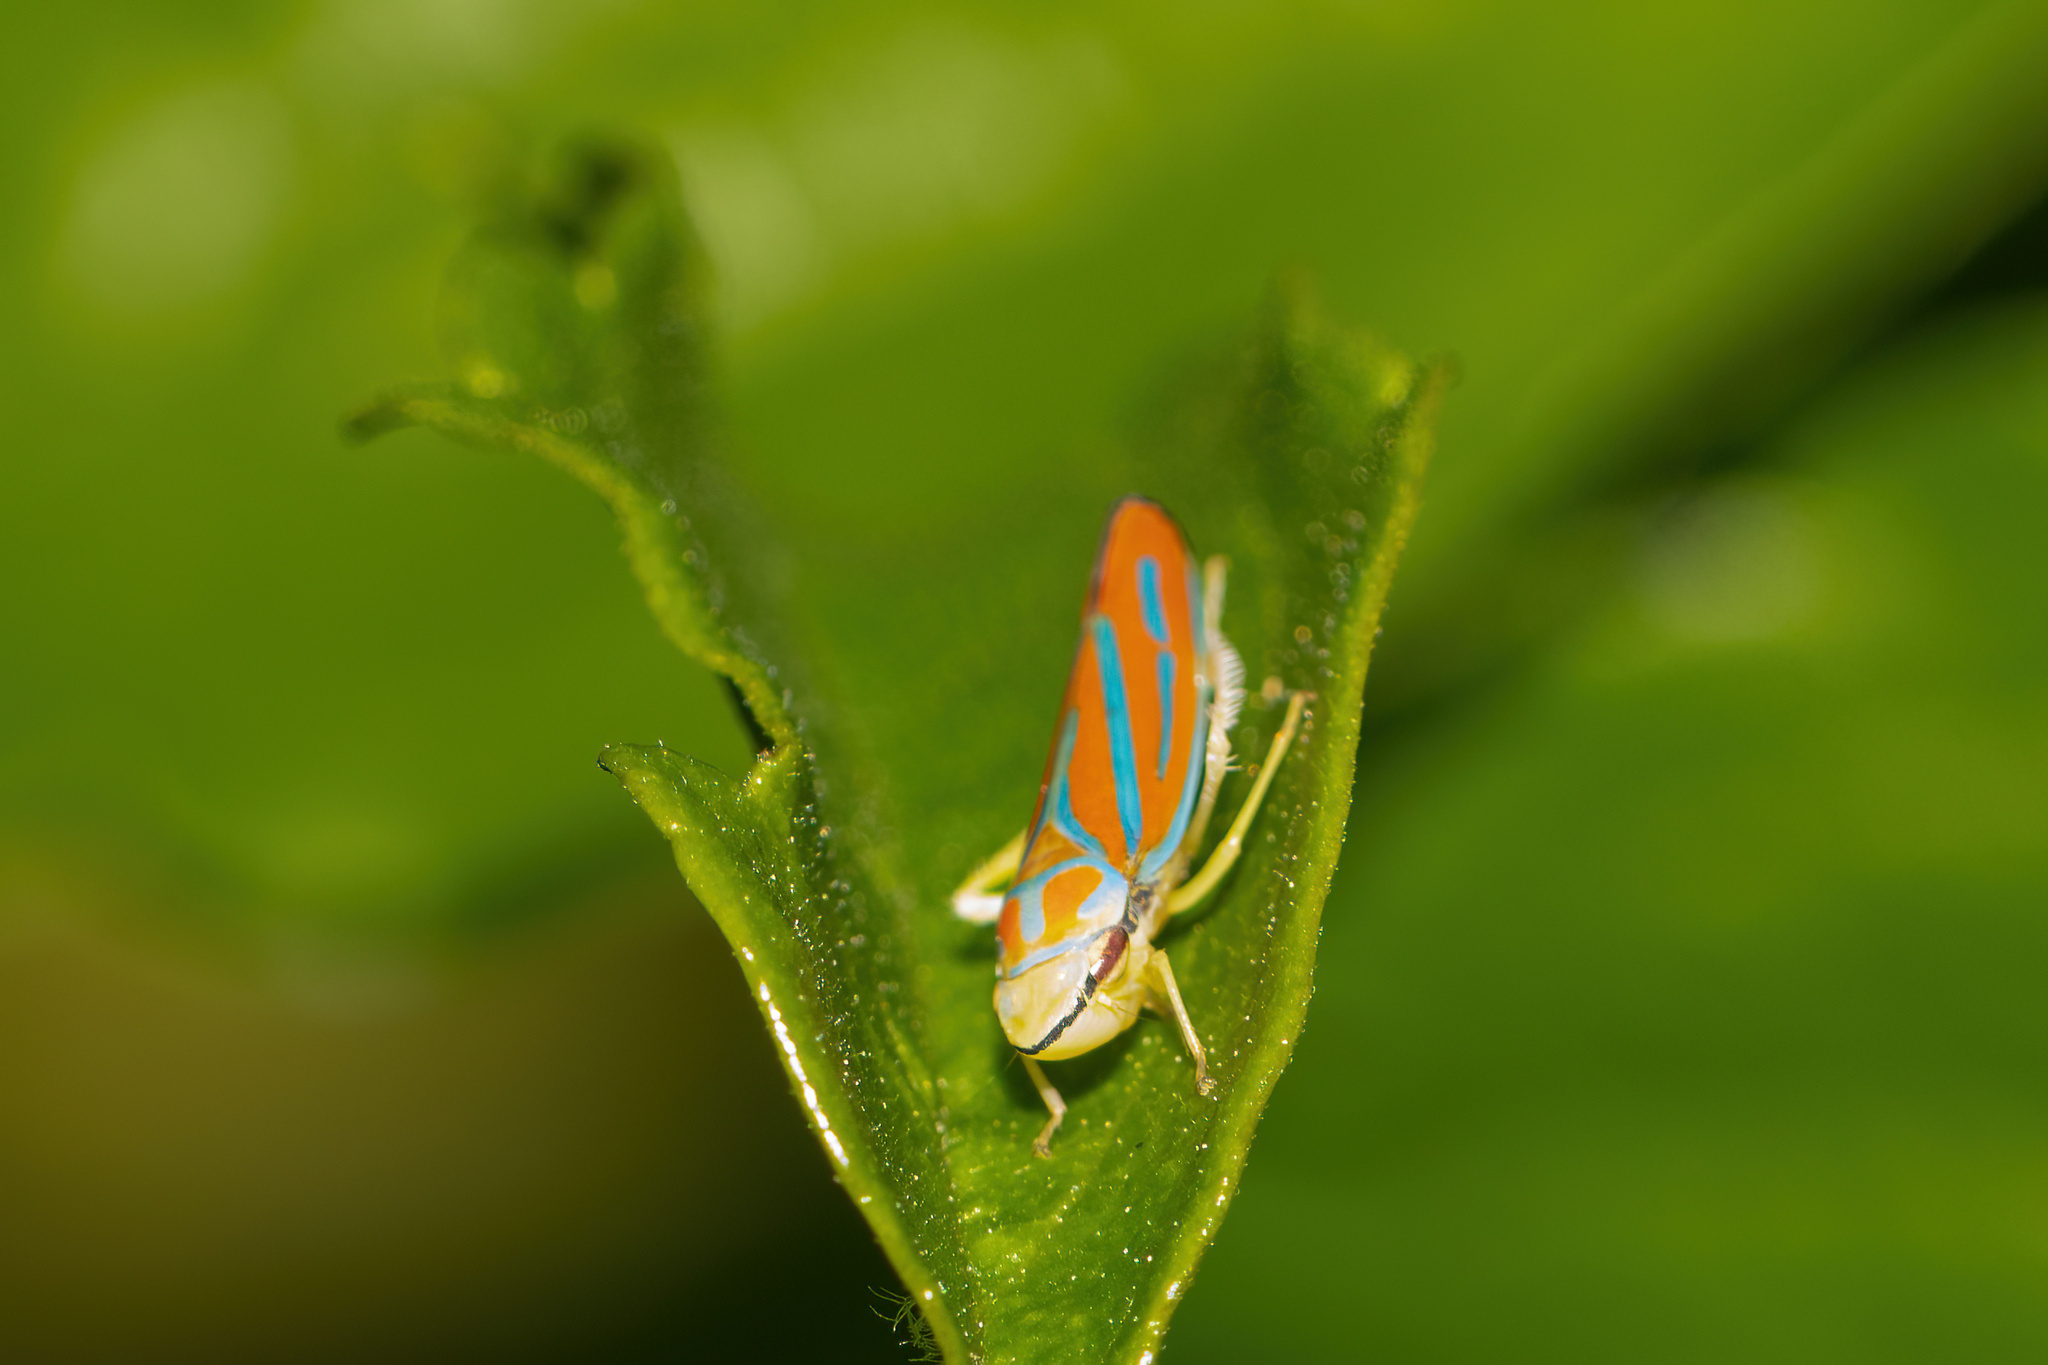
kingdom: Animalia
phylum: Arthropoda
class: Insecta
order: Hemiptera
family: Cicadellidae
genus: Graphocephala
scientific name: Graphocephala coccinea
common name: Candy-striped leafhopper
